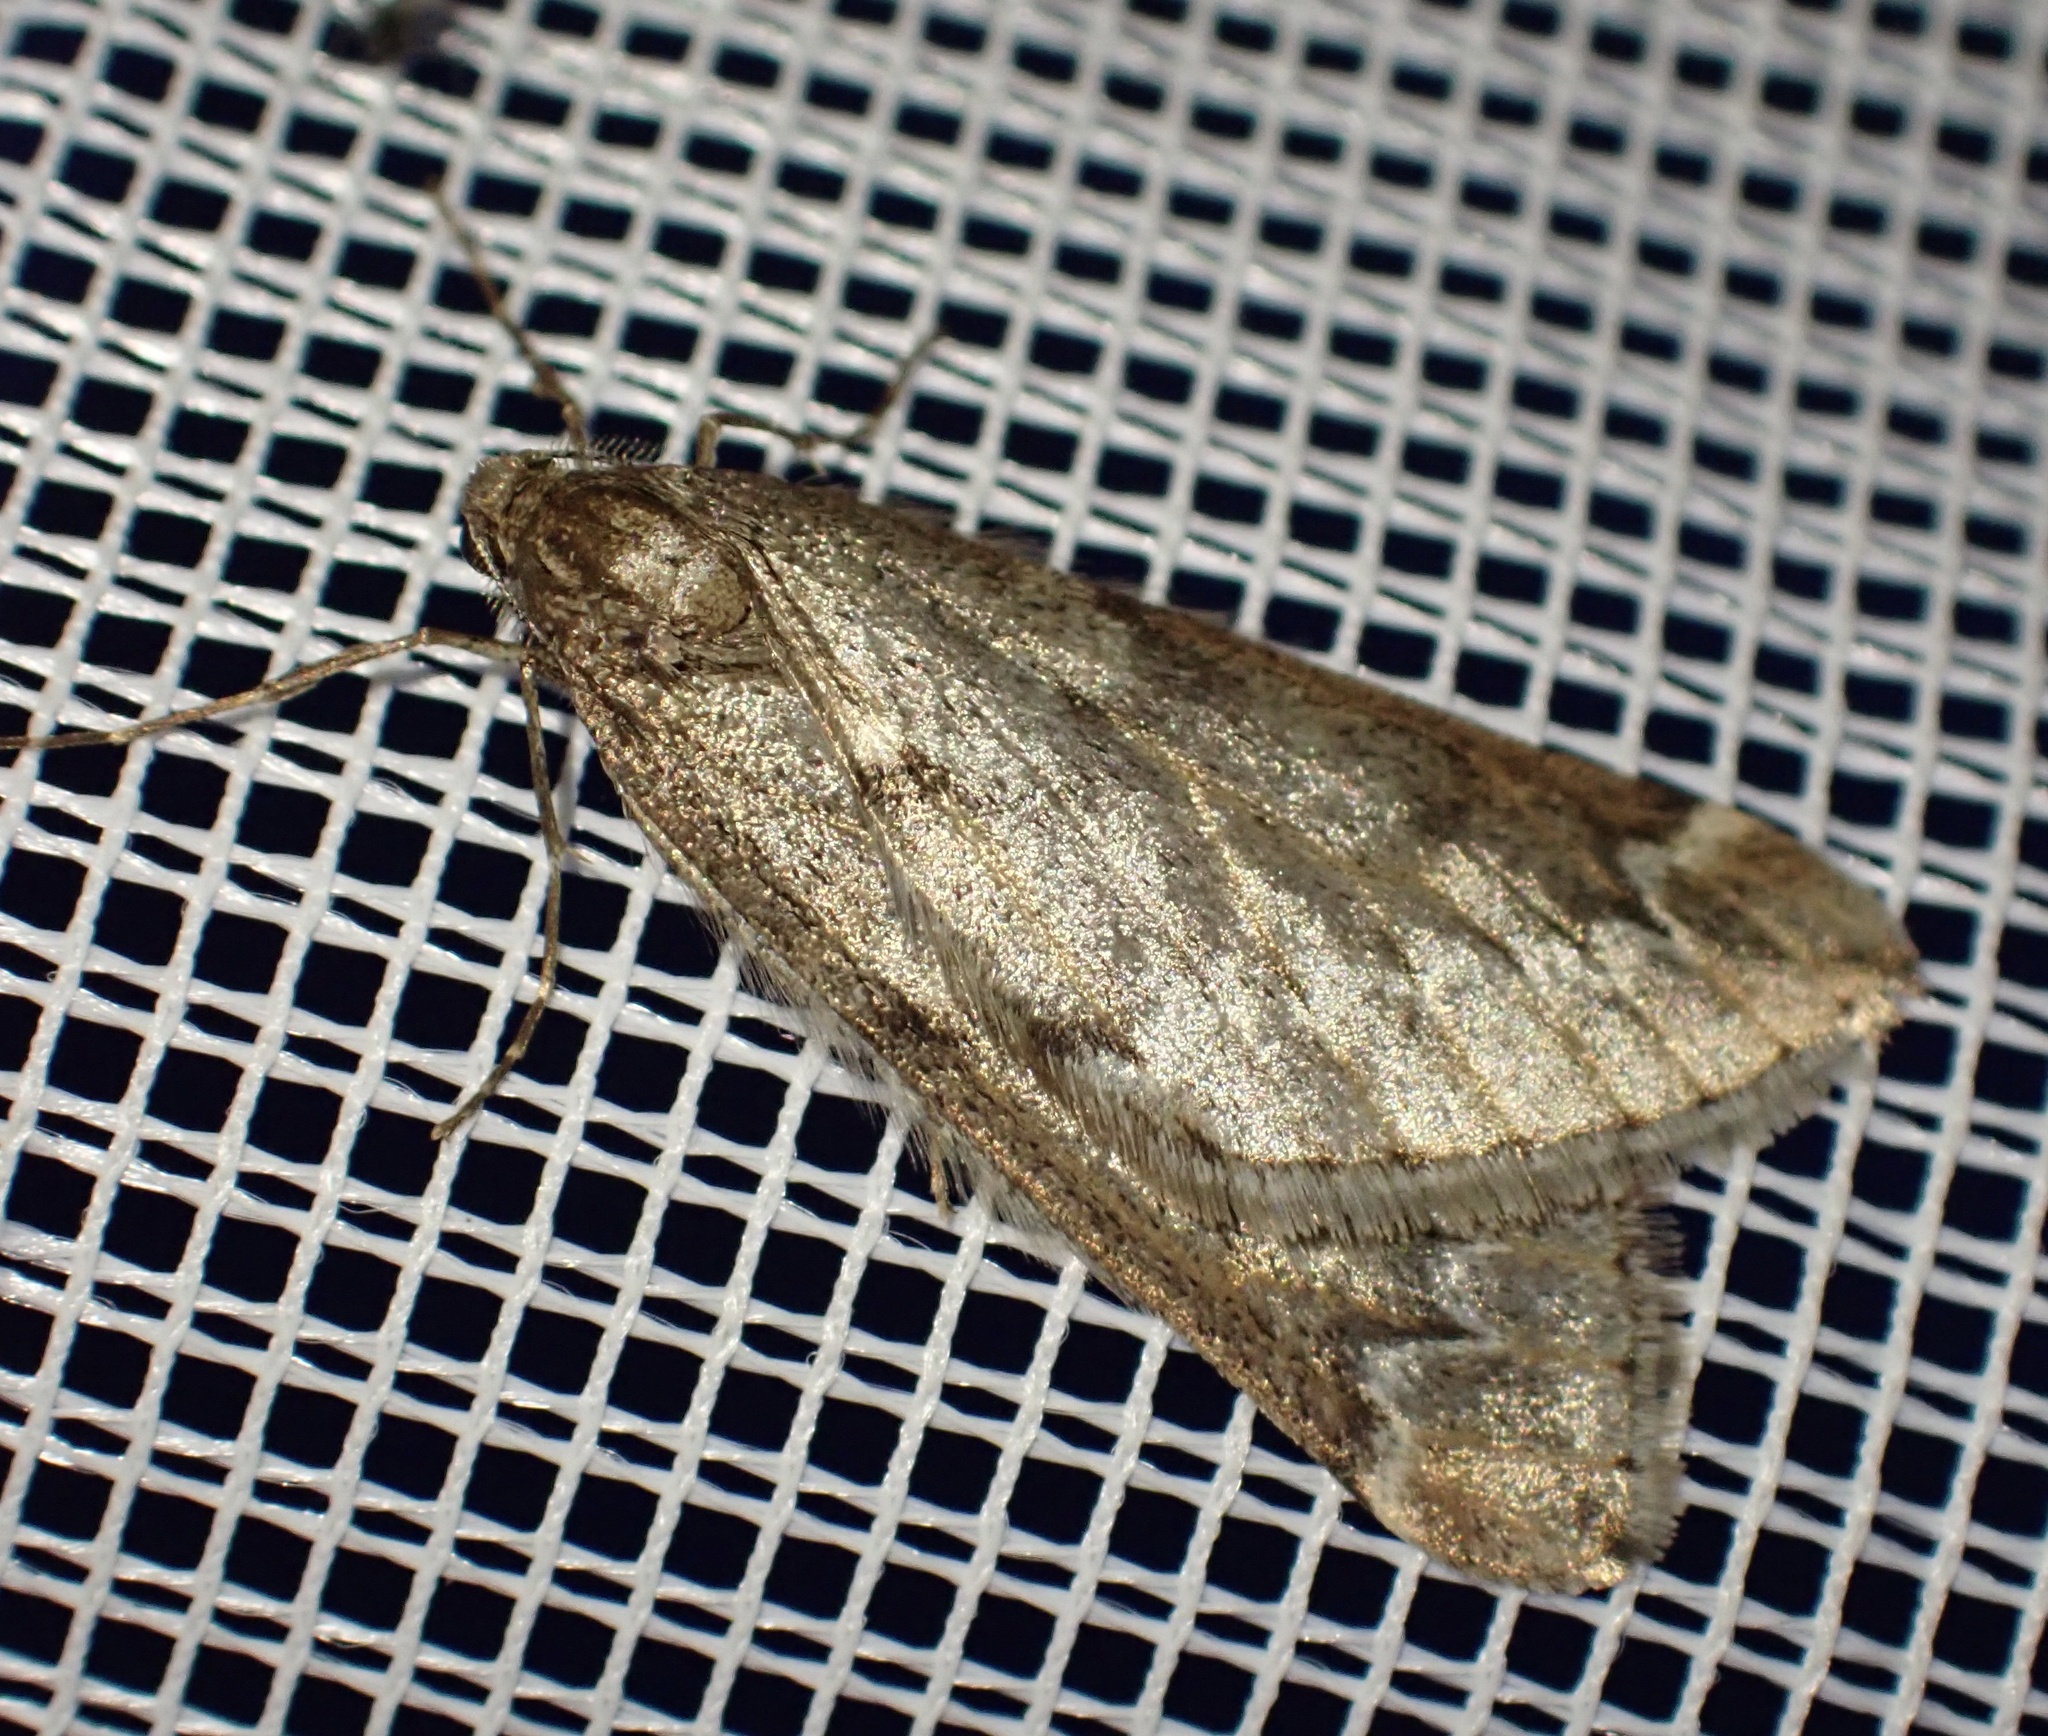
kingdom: Animalia
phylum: Arthropoda
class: Insecta
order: Lepidoptera
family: Geometridae
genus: Alsophila
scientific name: Alsophila aescularia
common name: March moth
